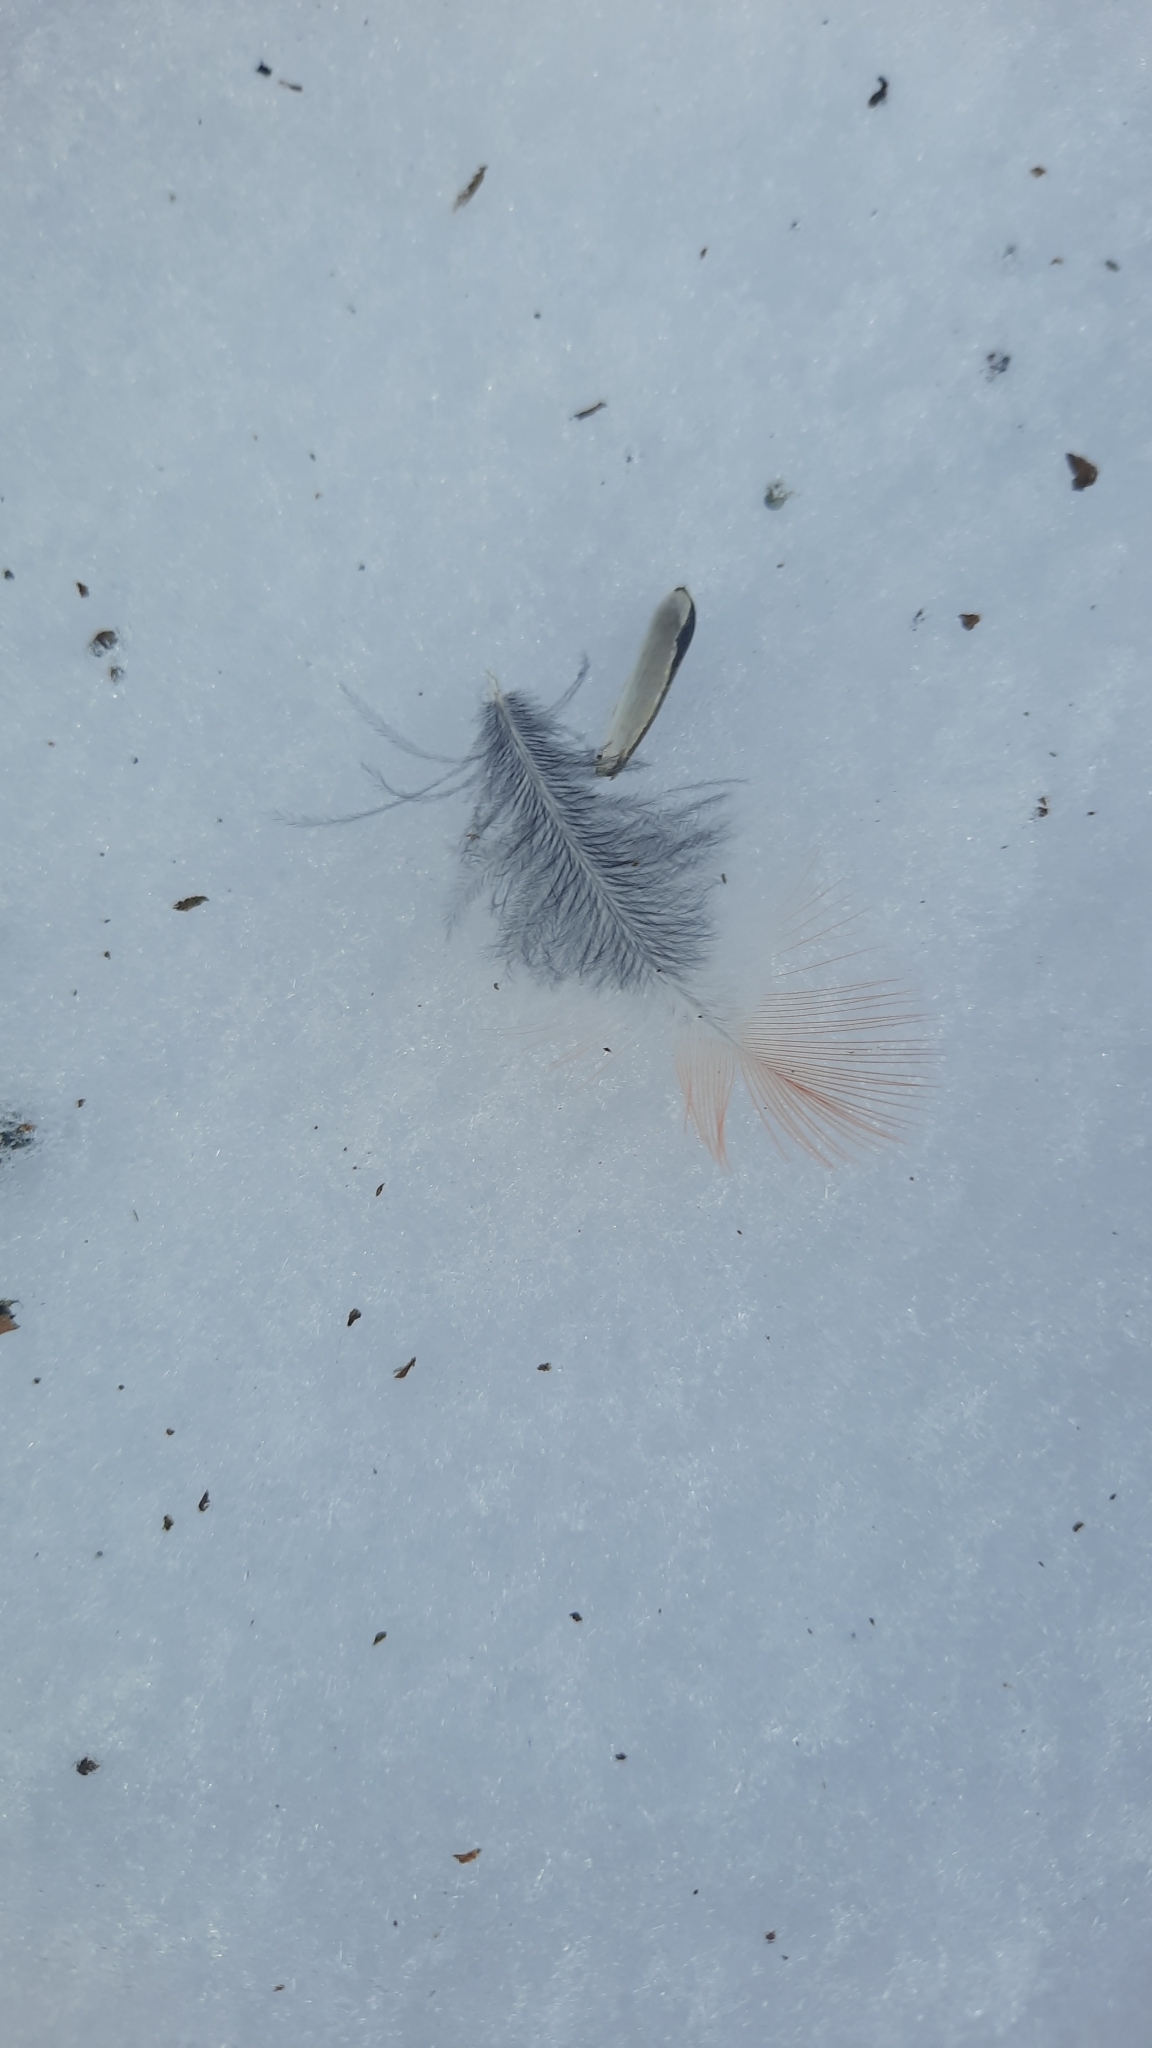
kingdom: Animalia
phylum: Chordata
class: Aves
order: Passeriformes
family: Fringillidae
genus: Pyrrhula
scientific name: Pyrrhula pyrrhula
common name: Eurasian bullfinch
